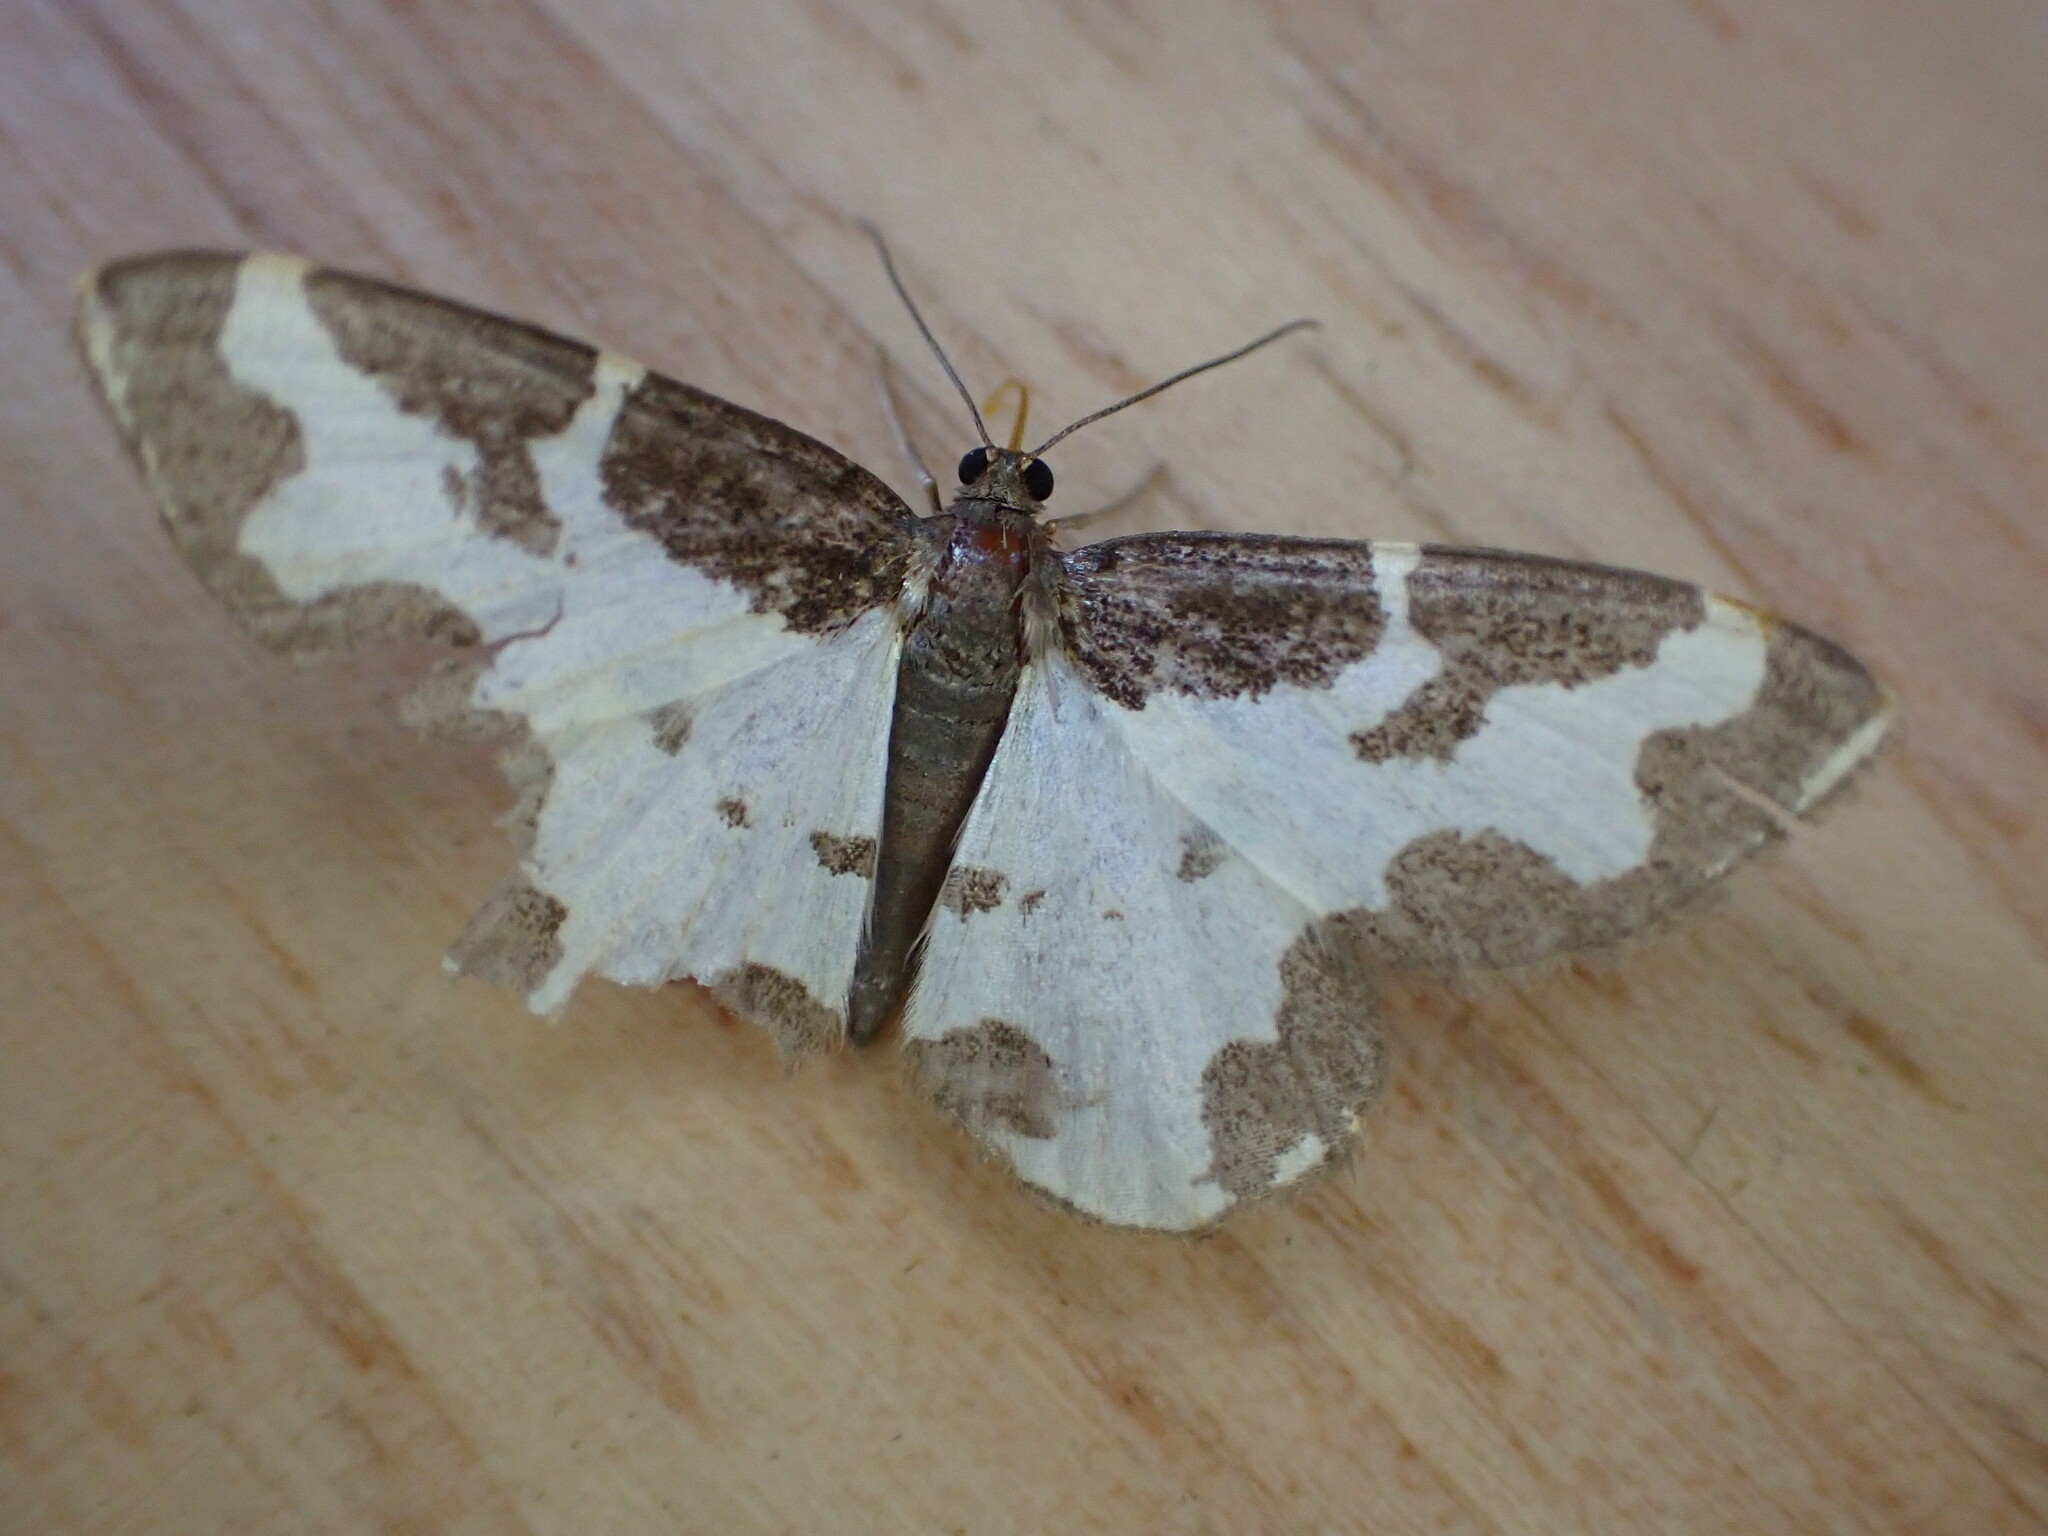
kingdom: Animalia
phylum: Arthropoda
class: Insecta
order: Lepidoptera
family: Geometridae
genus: Lomaspilis
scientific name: Lomaspilis marginata
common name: Clouded border
